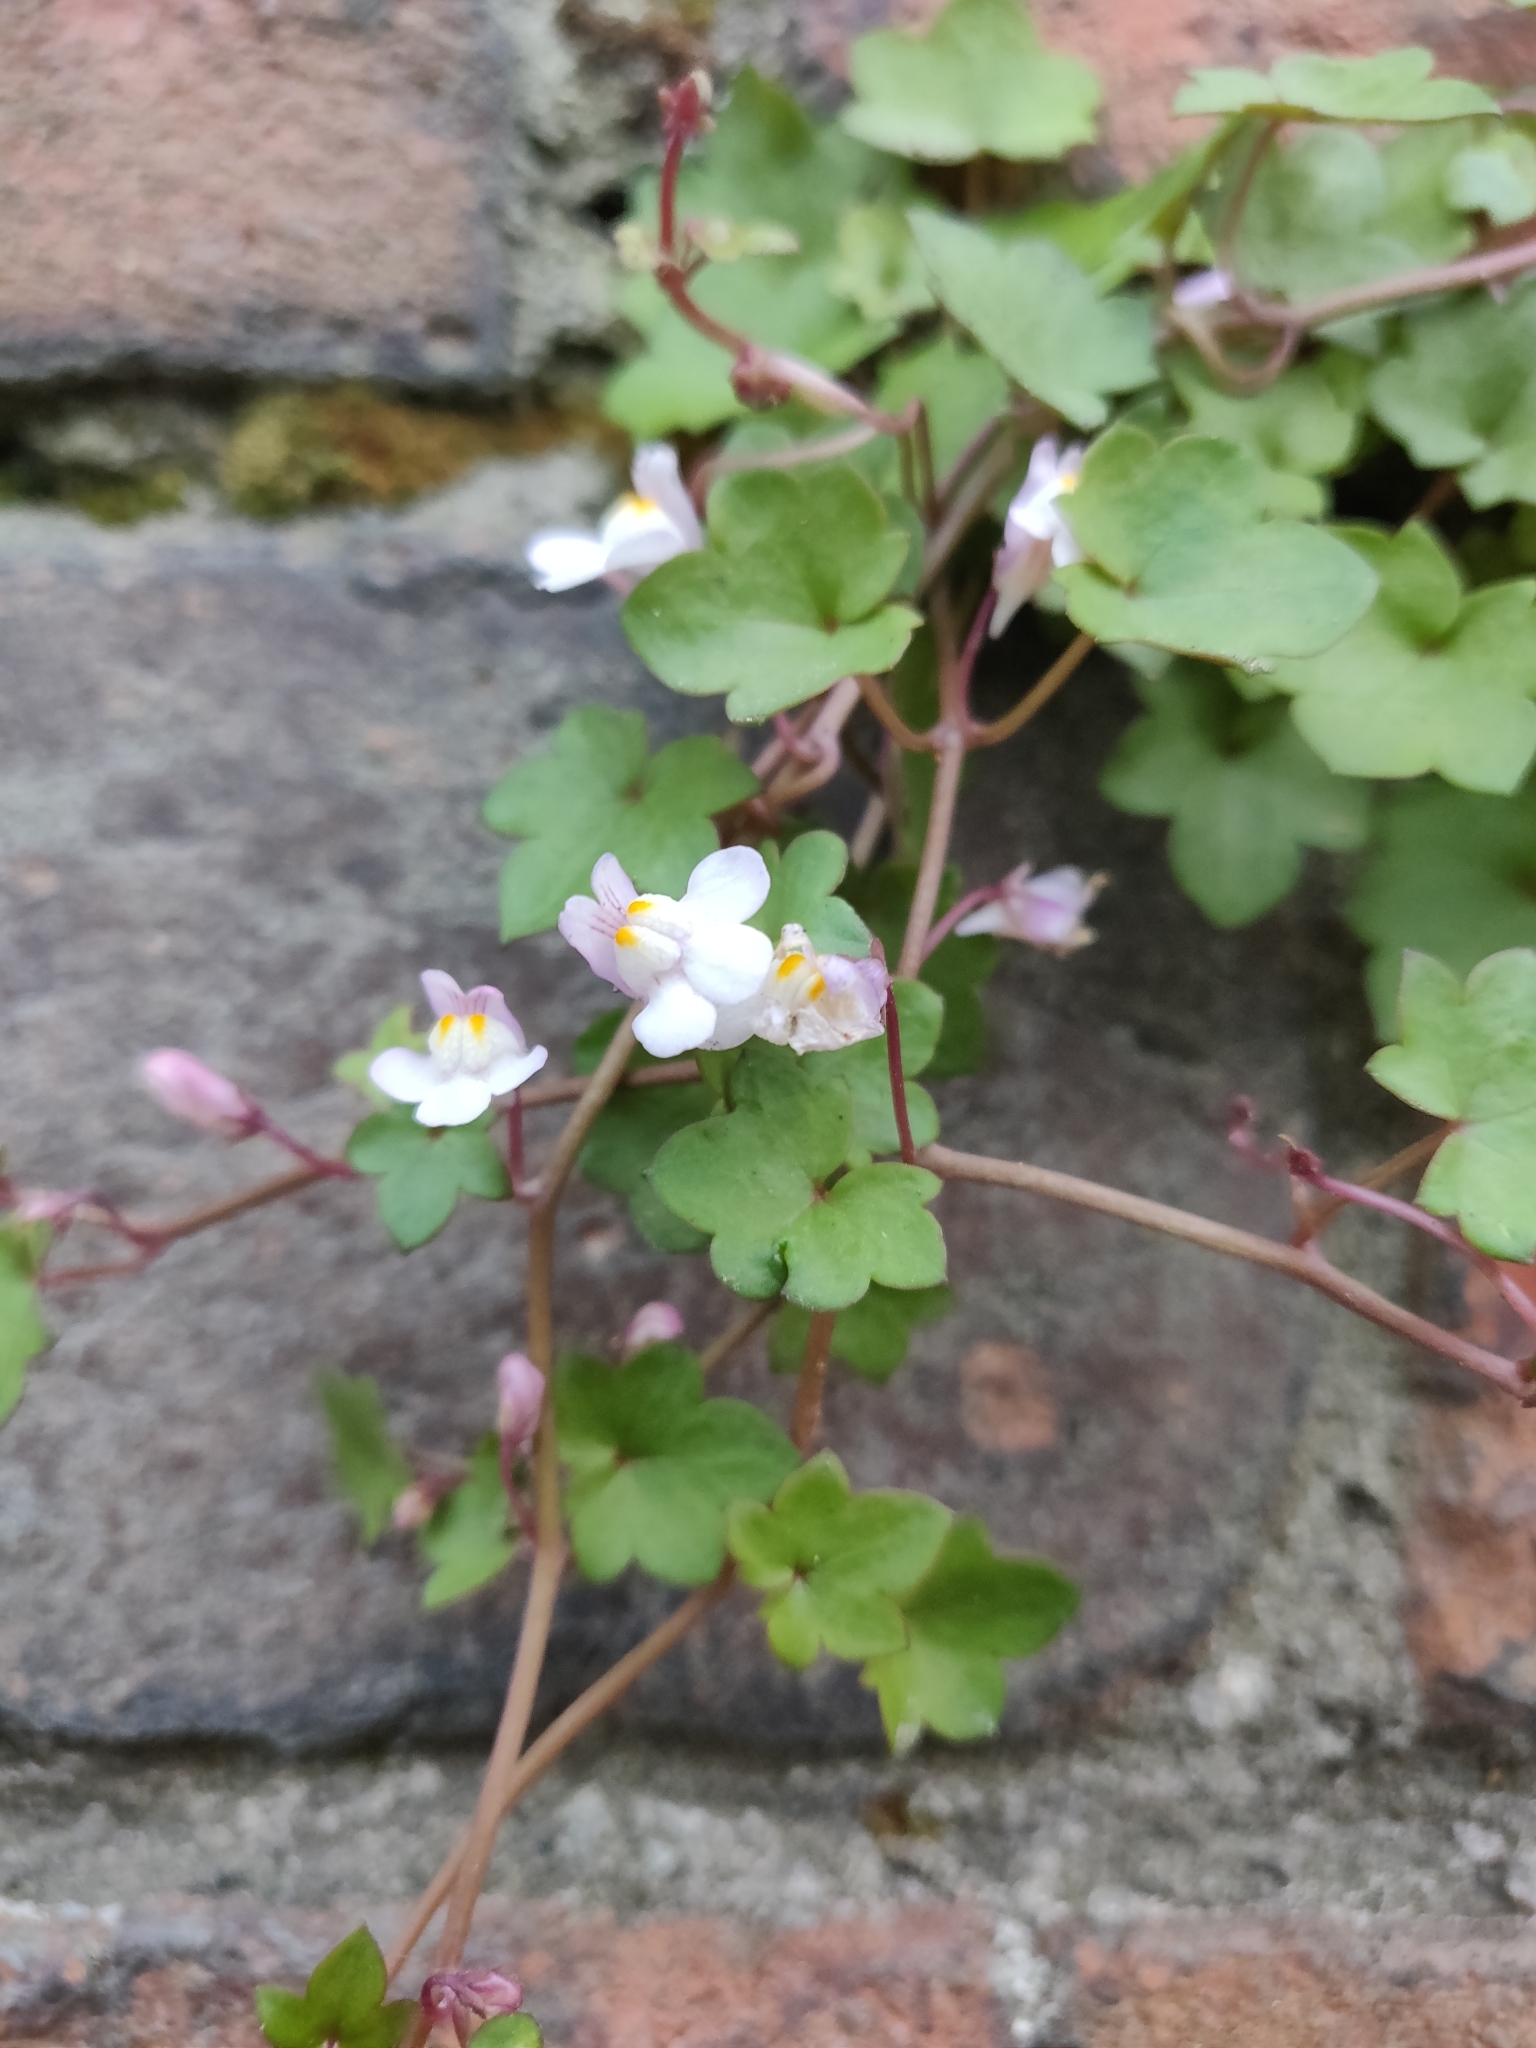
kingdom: Plantae
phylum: Tracheophyta
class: Magnoliopsida
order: Lamiales
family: Plantaginaceae
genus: Cymbalaria
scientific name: Cymbalaria muralis
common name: Ivy-leaved toadflax
